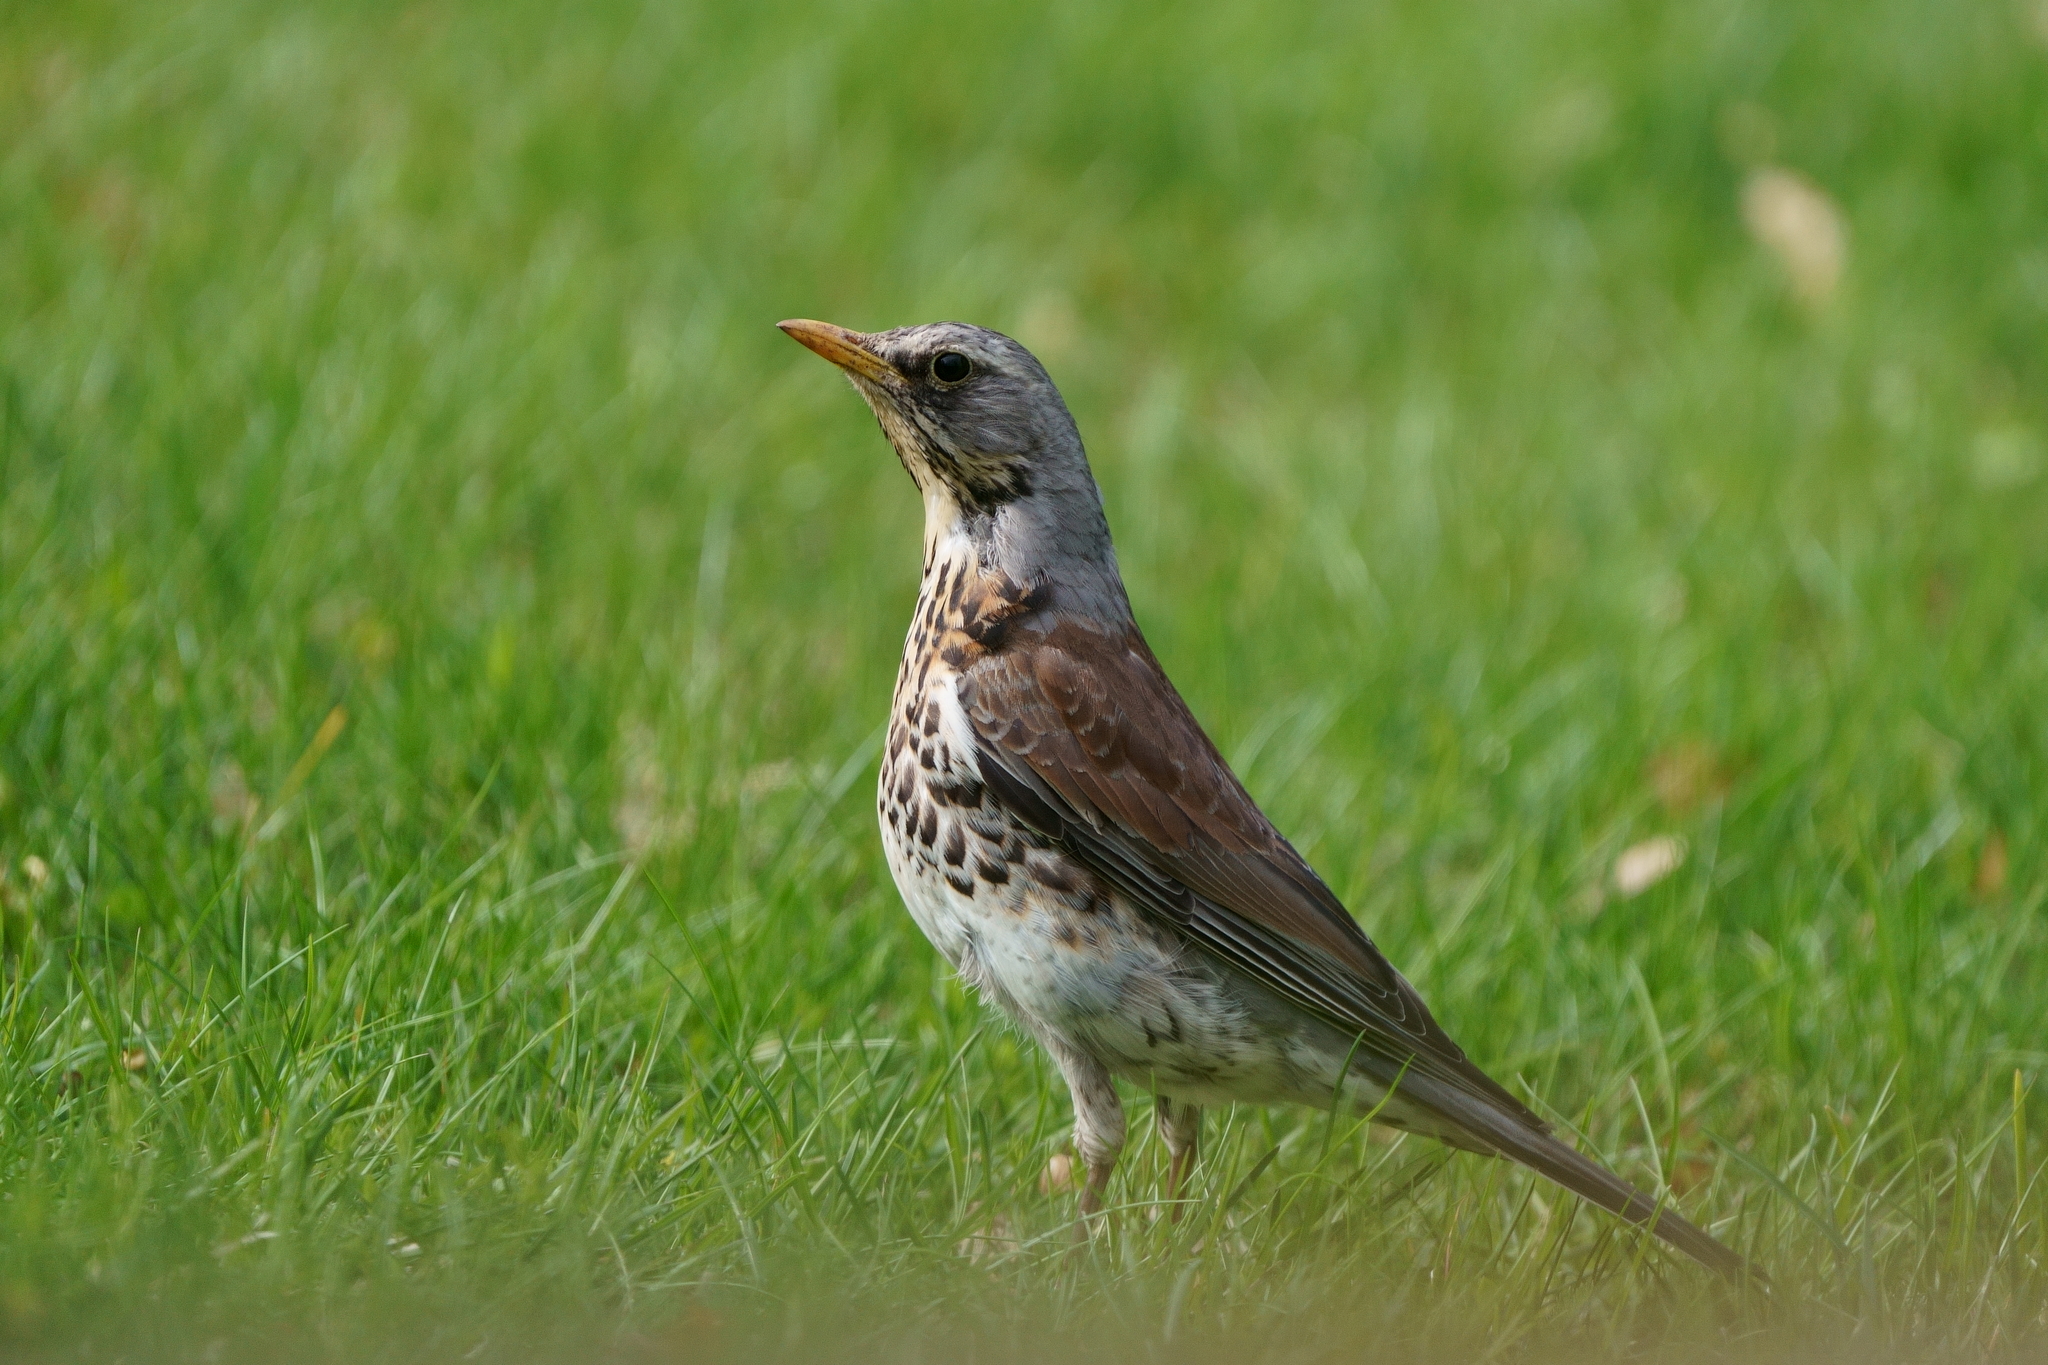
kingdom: Animalia
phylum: Chordata
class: Aves
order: Passeriformes
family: Turdidae
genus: Turdus
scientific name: Turdus pilaris
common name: Fieldfare
